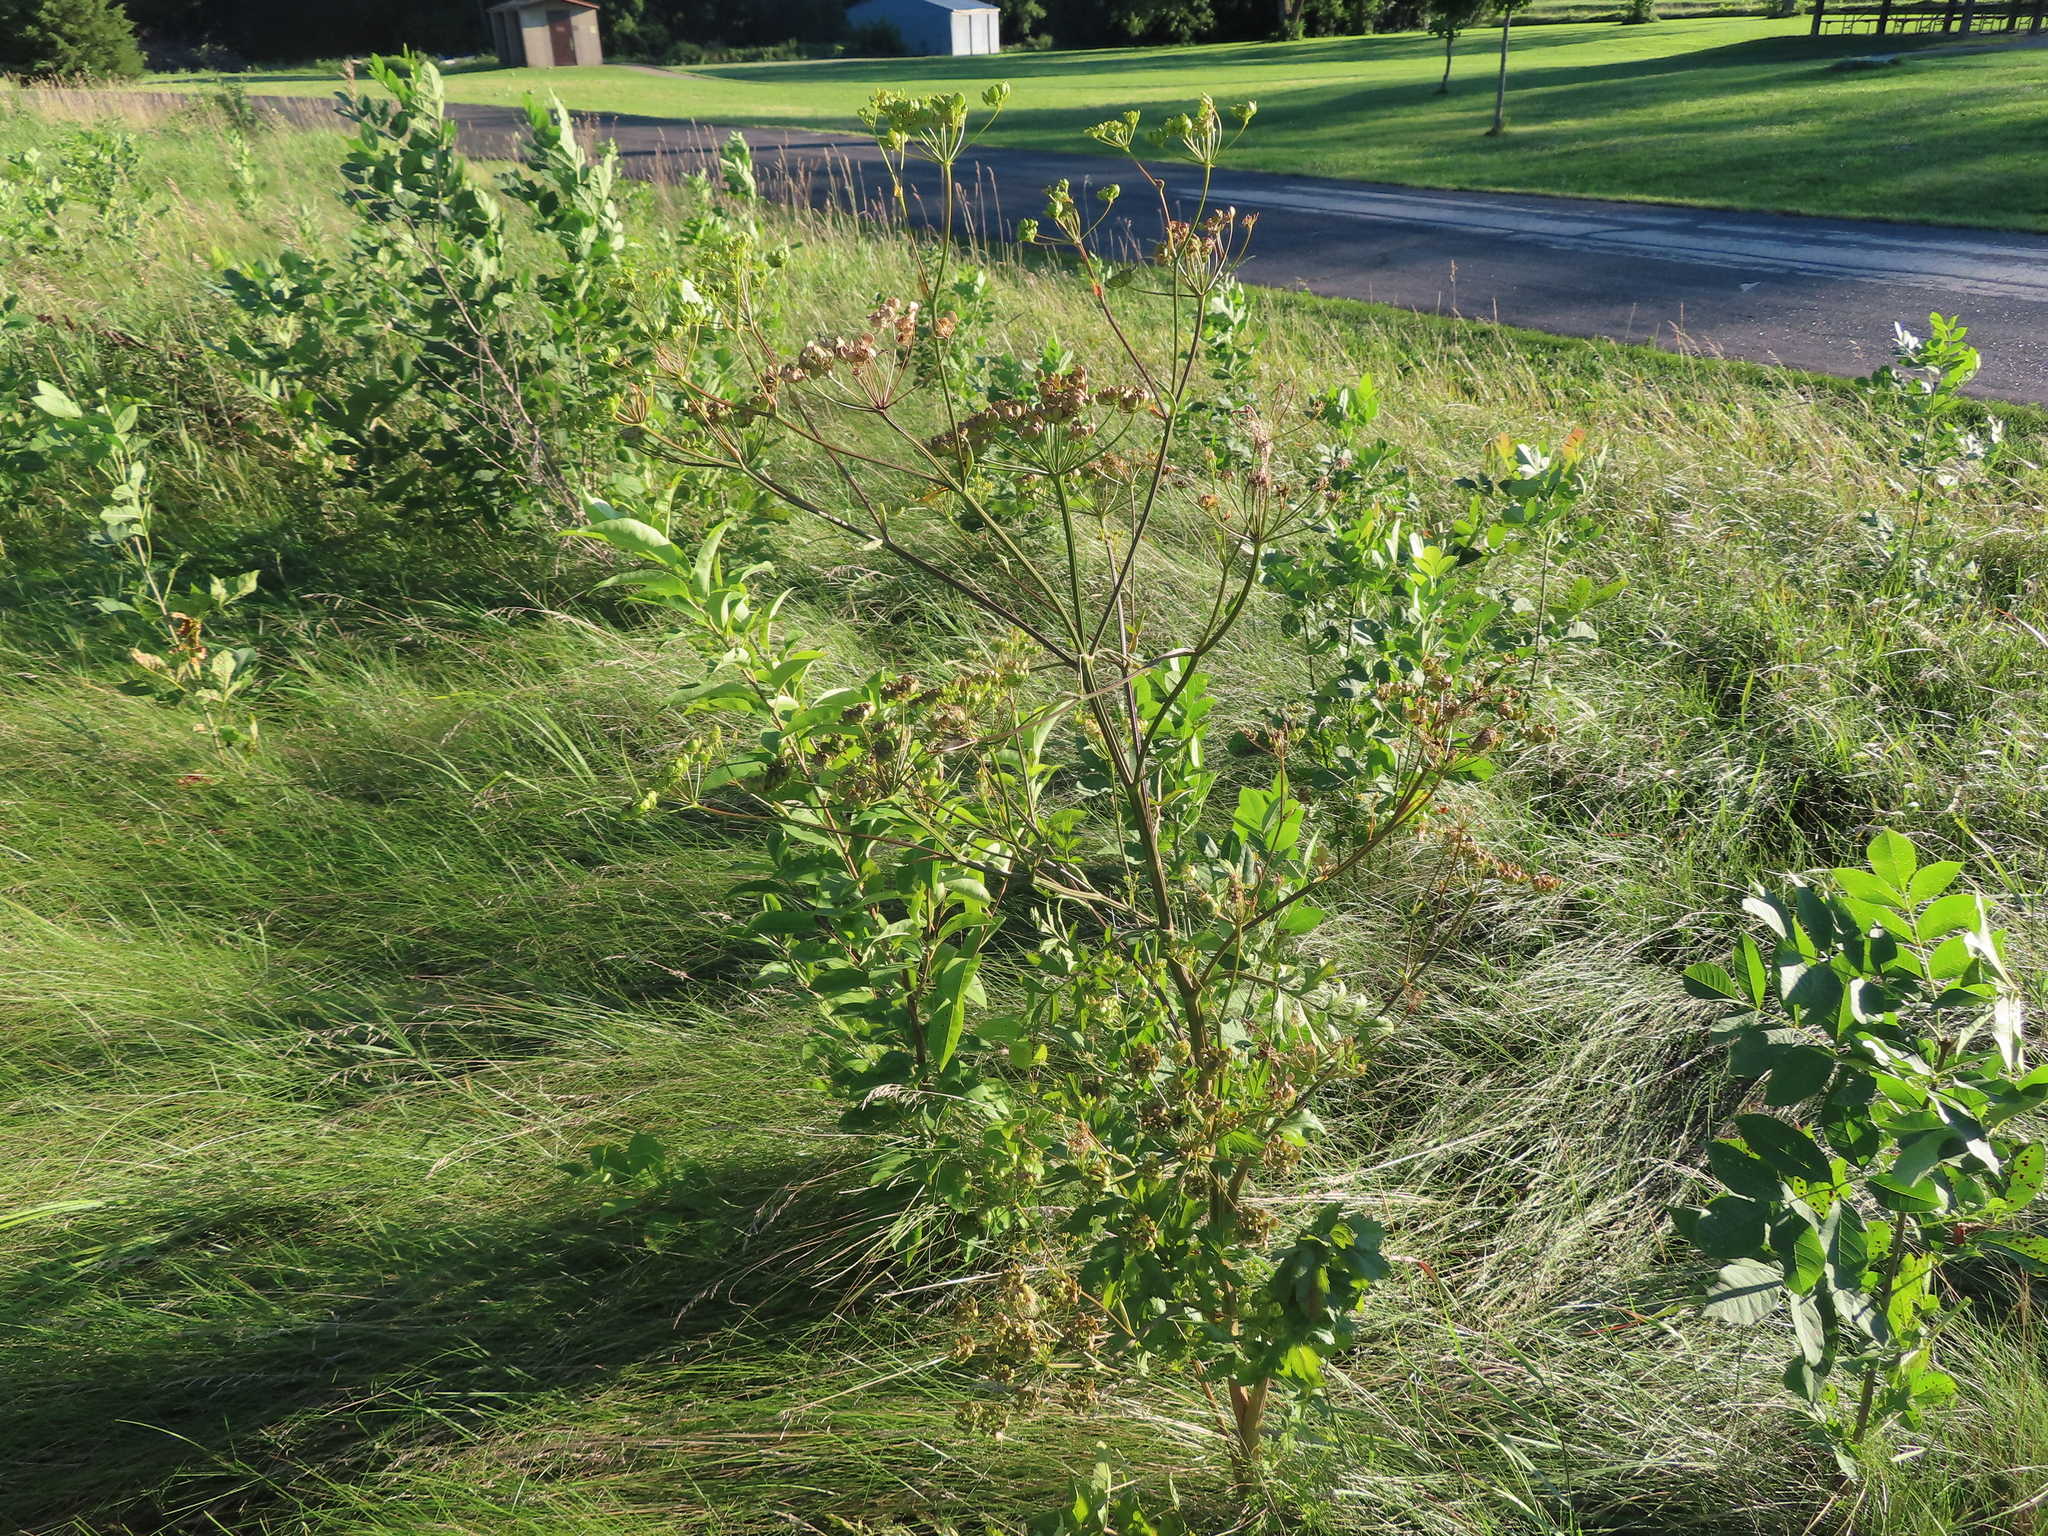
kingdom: Plantae
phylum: Tracheophyta
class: Magnoliopsida
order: Apiales
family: Apiaceae
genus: Pastinaca
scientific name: Pastinaca sativa
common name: Wild parsnip
